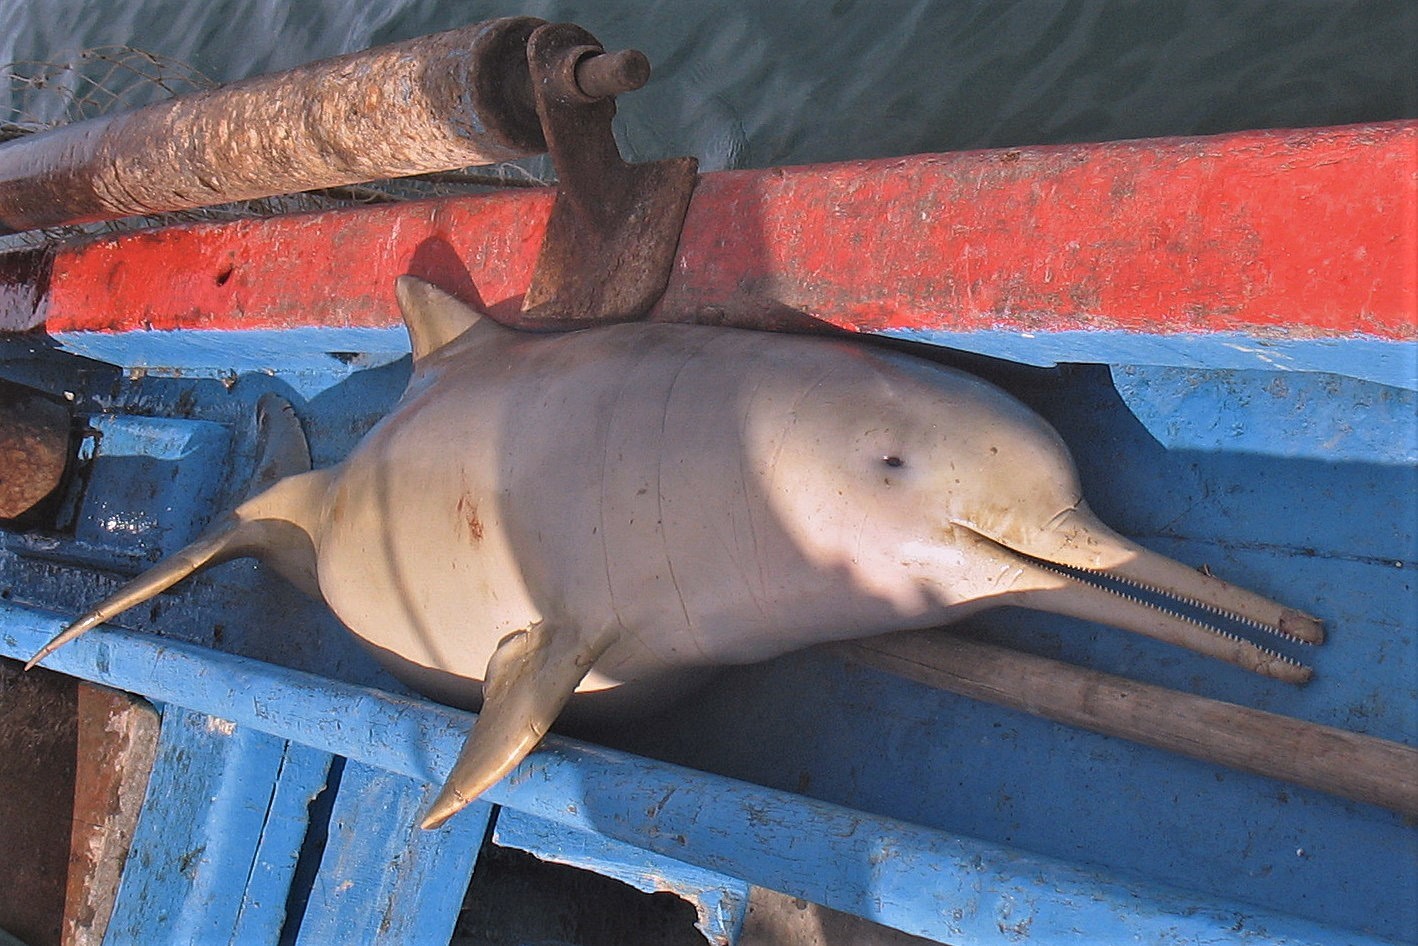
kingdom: Animalia
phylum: Chordata
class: Mammalia
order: Cetacea
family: Pontoporiidae
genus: Pontoporia
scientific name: Pontoporia blainvillei
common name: Franciscana
